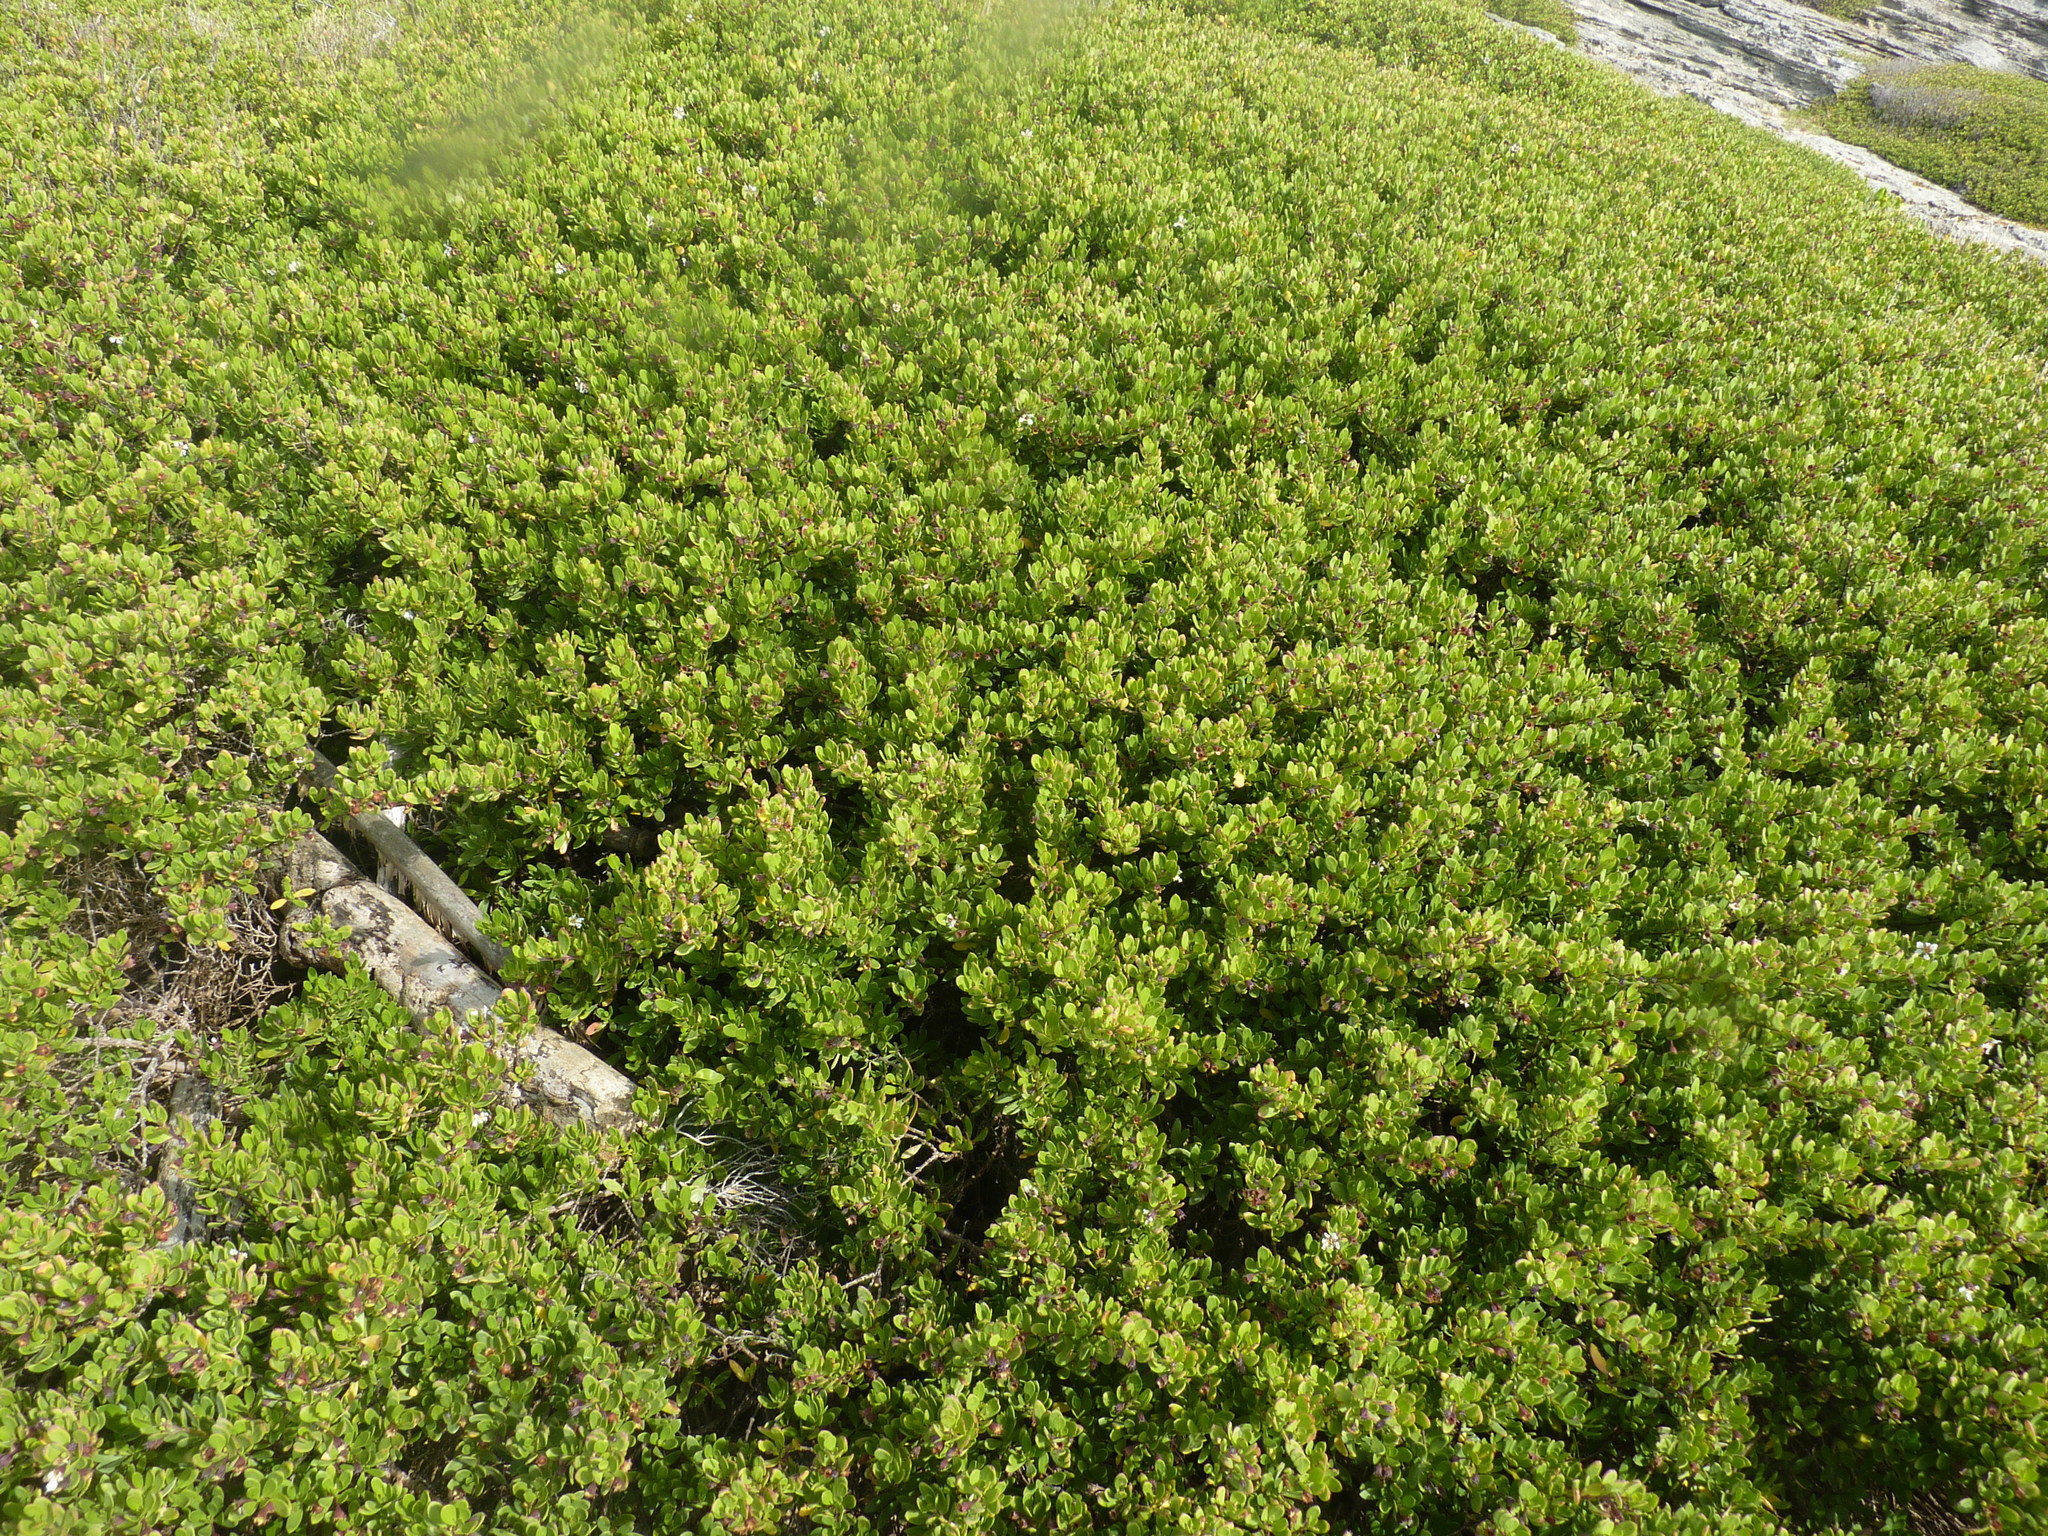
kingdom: Plantae
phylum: Tracheophyta
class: Magnoliopsida
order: Myrtales
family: Lythraceae
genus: Pemphis
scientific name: Pemphis acidula
